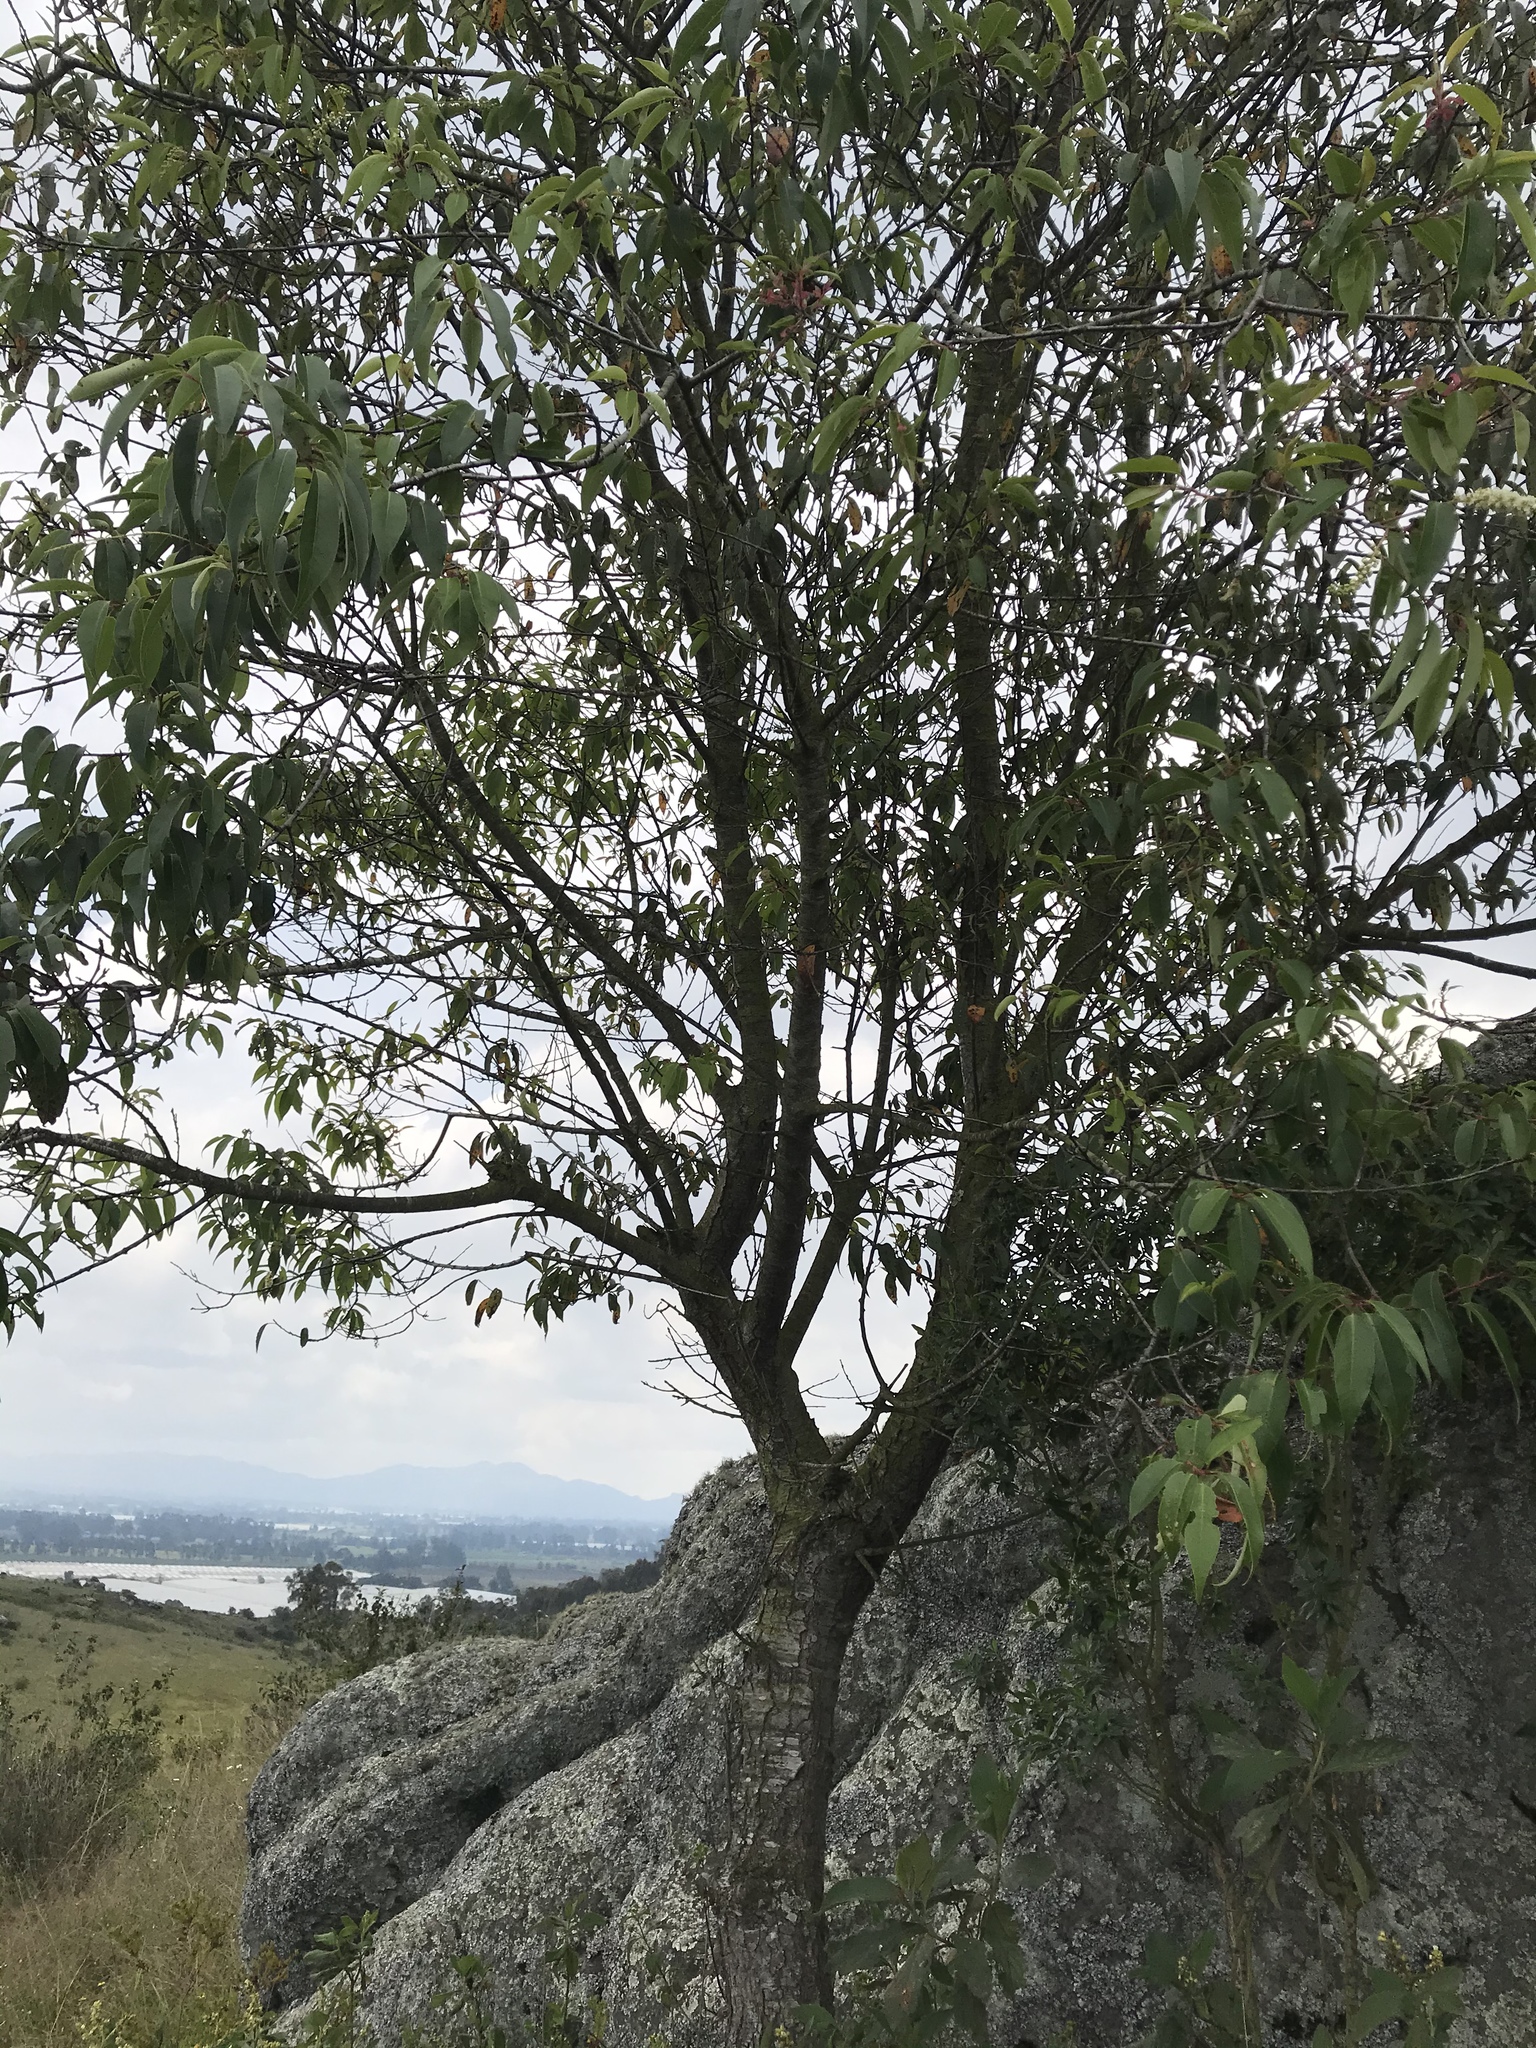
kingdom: Plantae
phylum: Tracheophyta
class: Magnoliopsida
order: Rosales
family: Rosaceae
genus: Prunus
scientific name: Prunus serotina
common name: Black cherry
